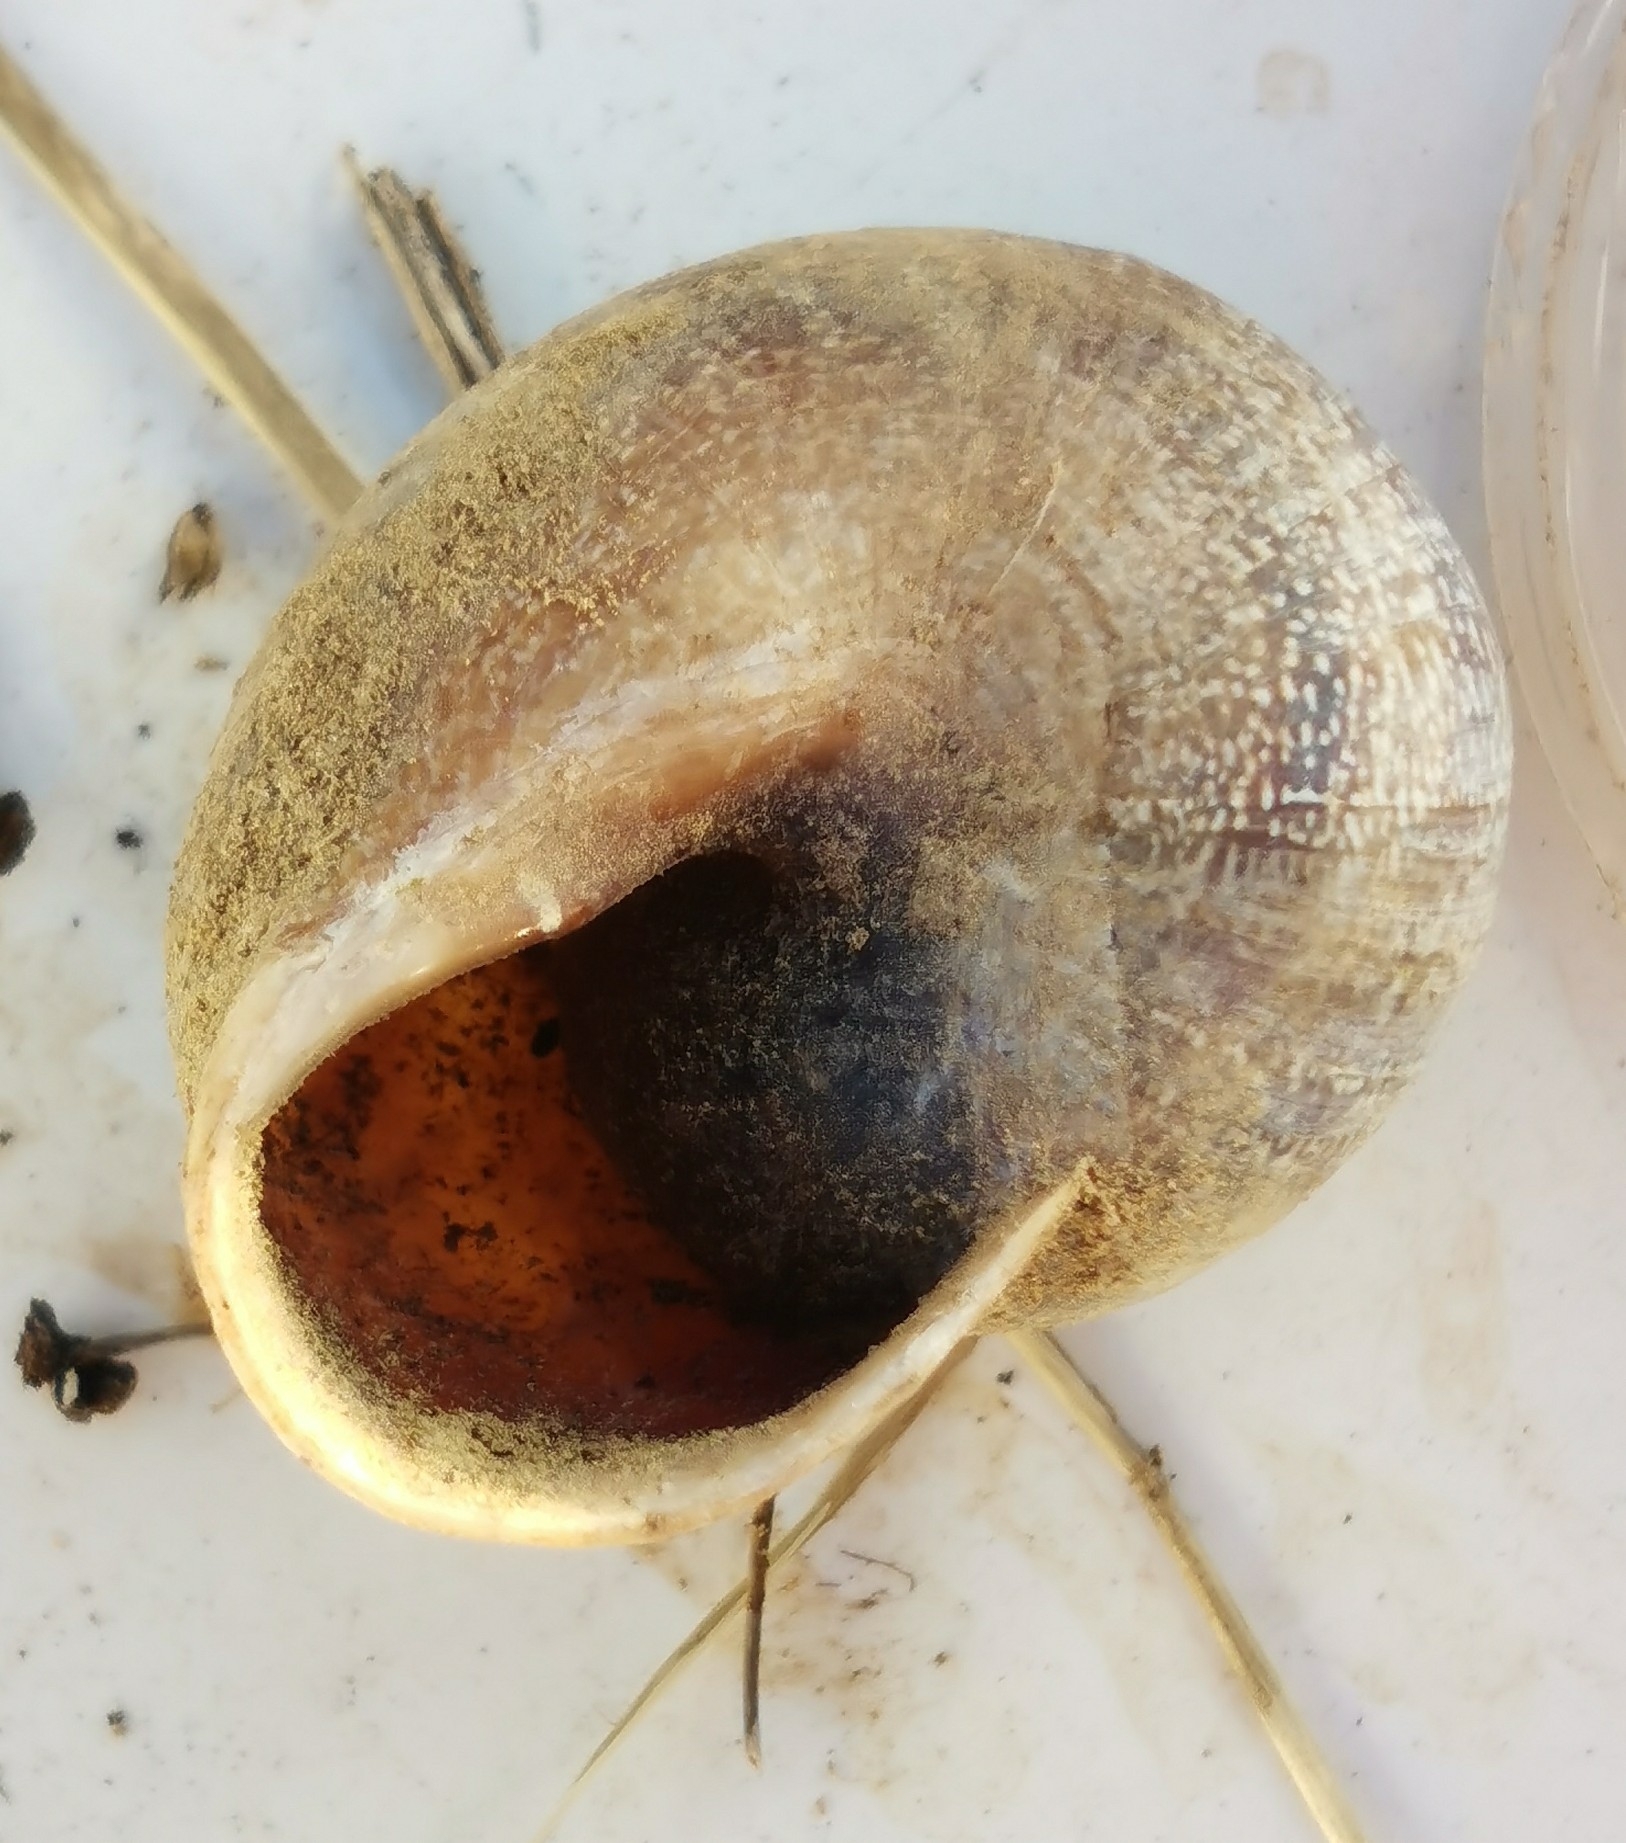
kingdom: Animalia
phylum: Mollusca
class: Gastropoda
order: Stylommatophora
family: Helicidae
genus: Otala
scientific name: Otala punctata
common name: Milk snail
